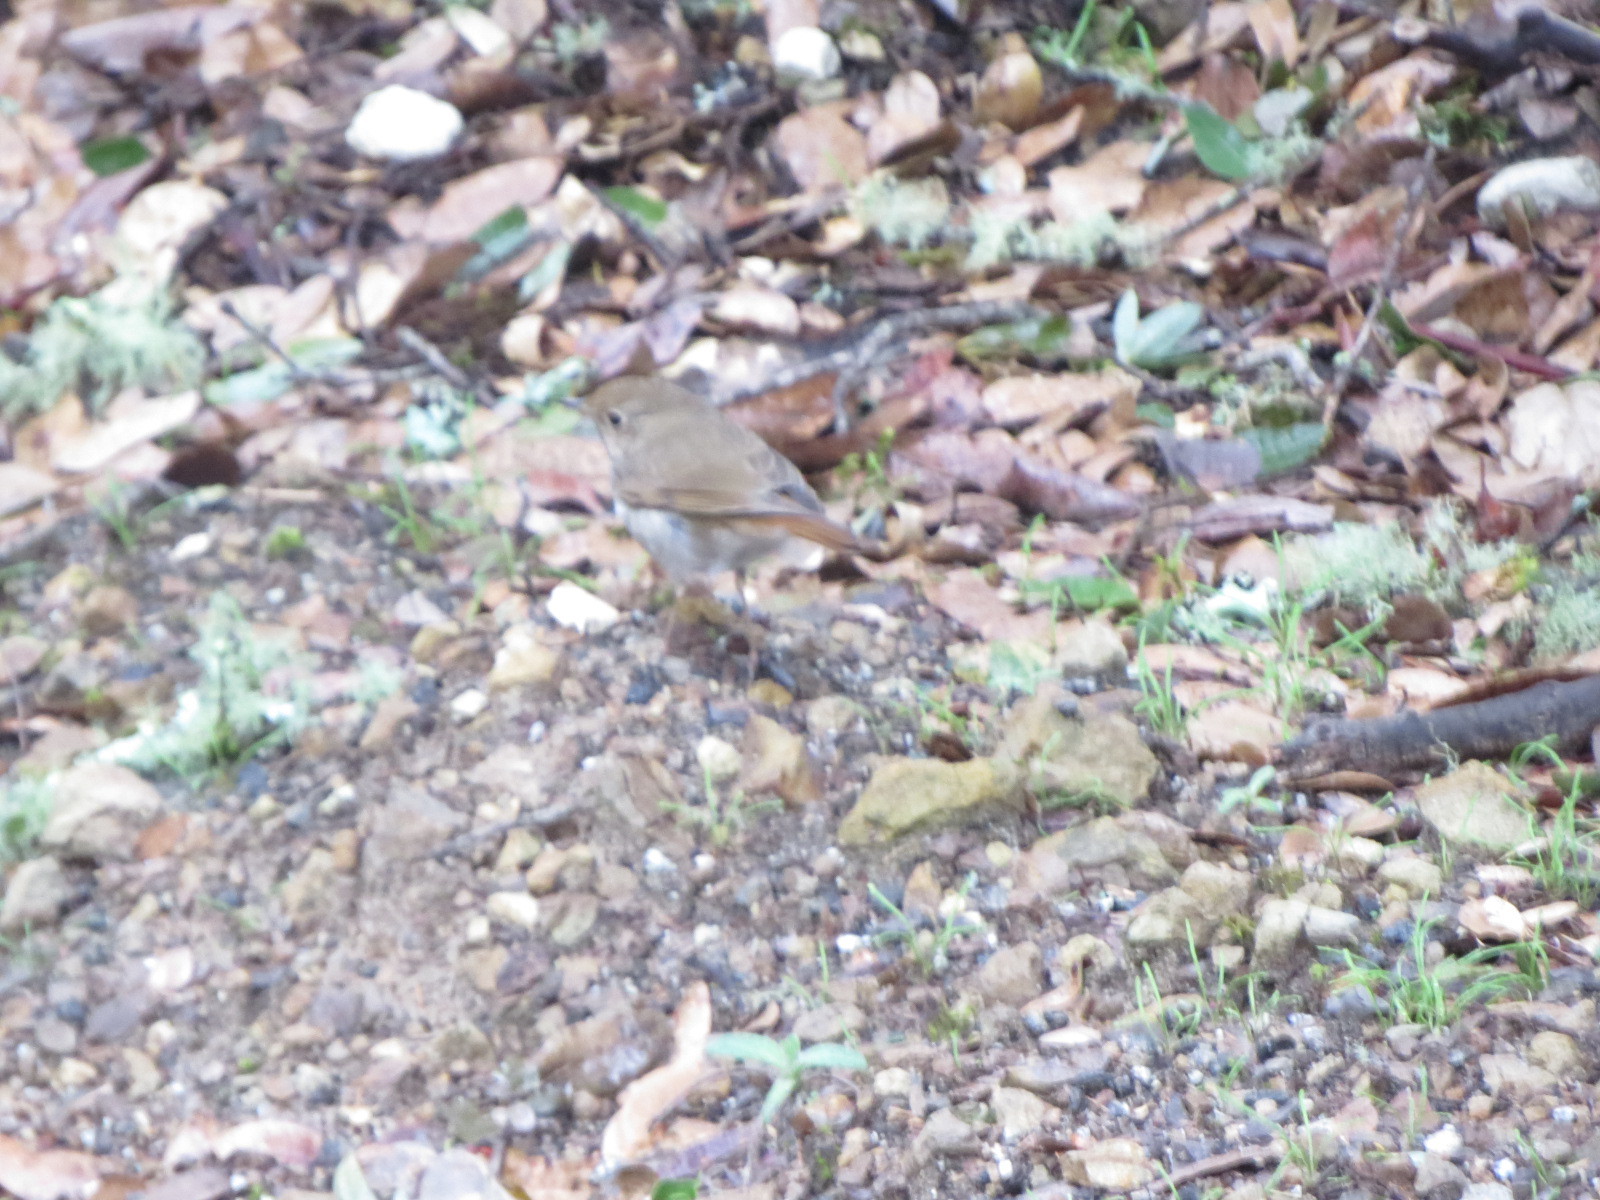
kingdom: Animalia
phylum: Chordata
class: Aves
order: Passeriformes
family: Turdidae
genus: Catharus
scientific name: Catharus guttatus
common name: Hermit thrush
